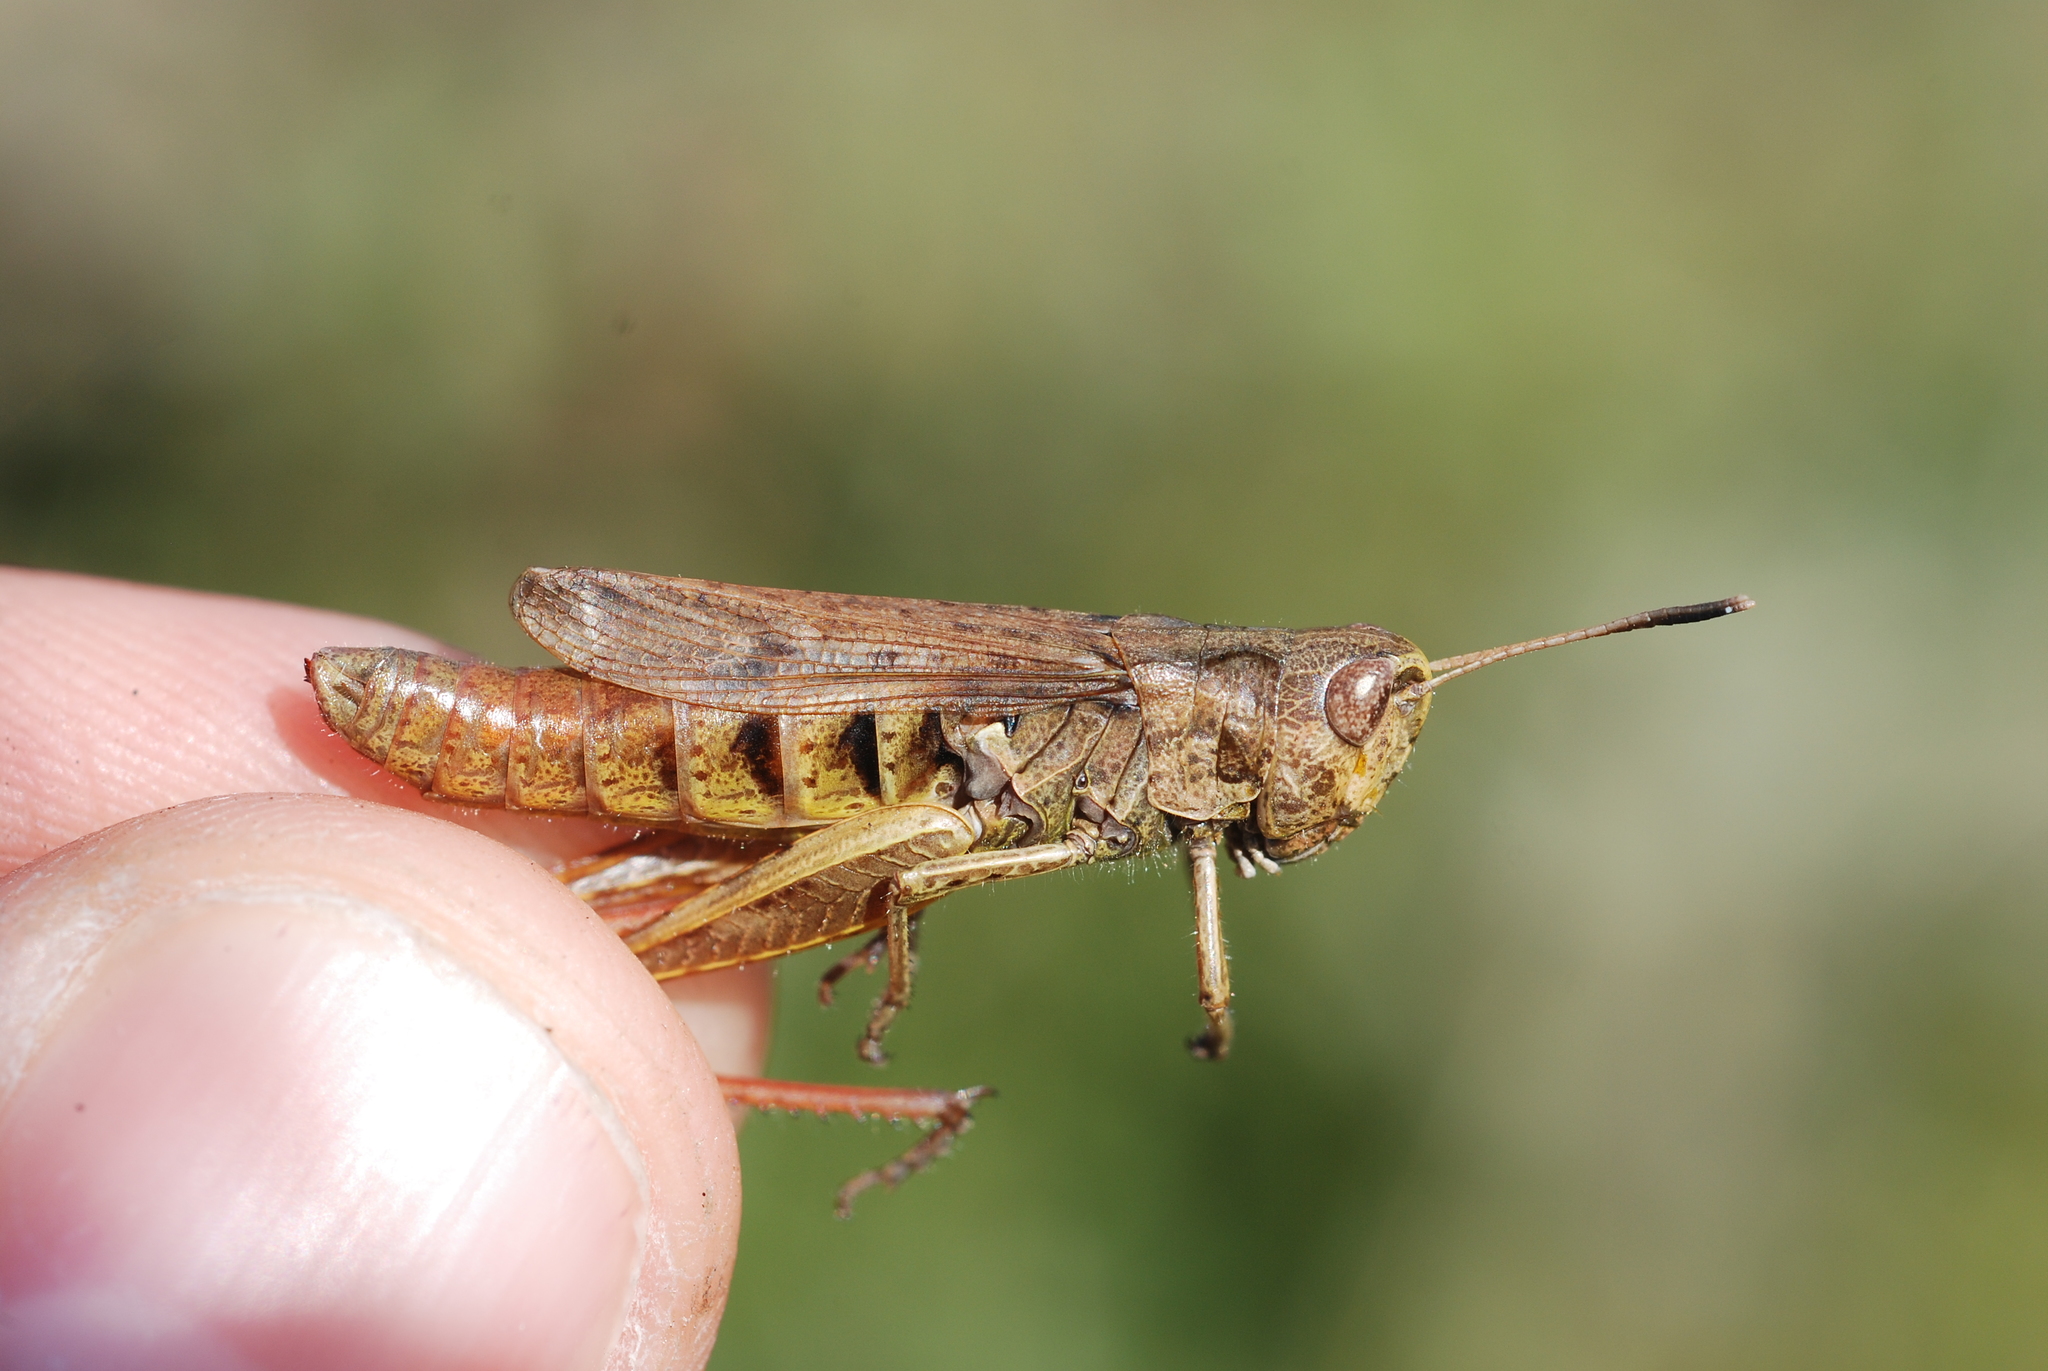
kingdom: Animalia
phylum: Arthropoda
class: Insecta
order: Orthoptera
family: Acrididae
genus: Gomphocerippus
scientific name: Gomphocerippus rufus
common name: Rufous grasshopper
